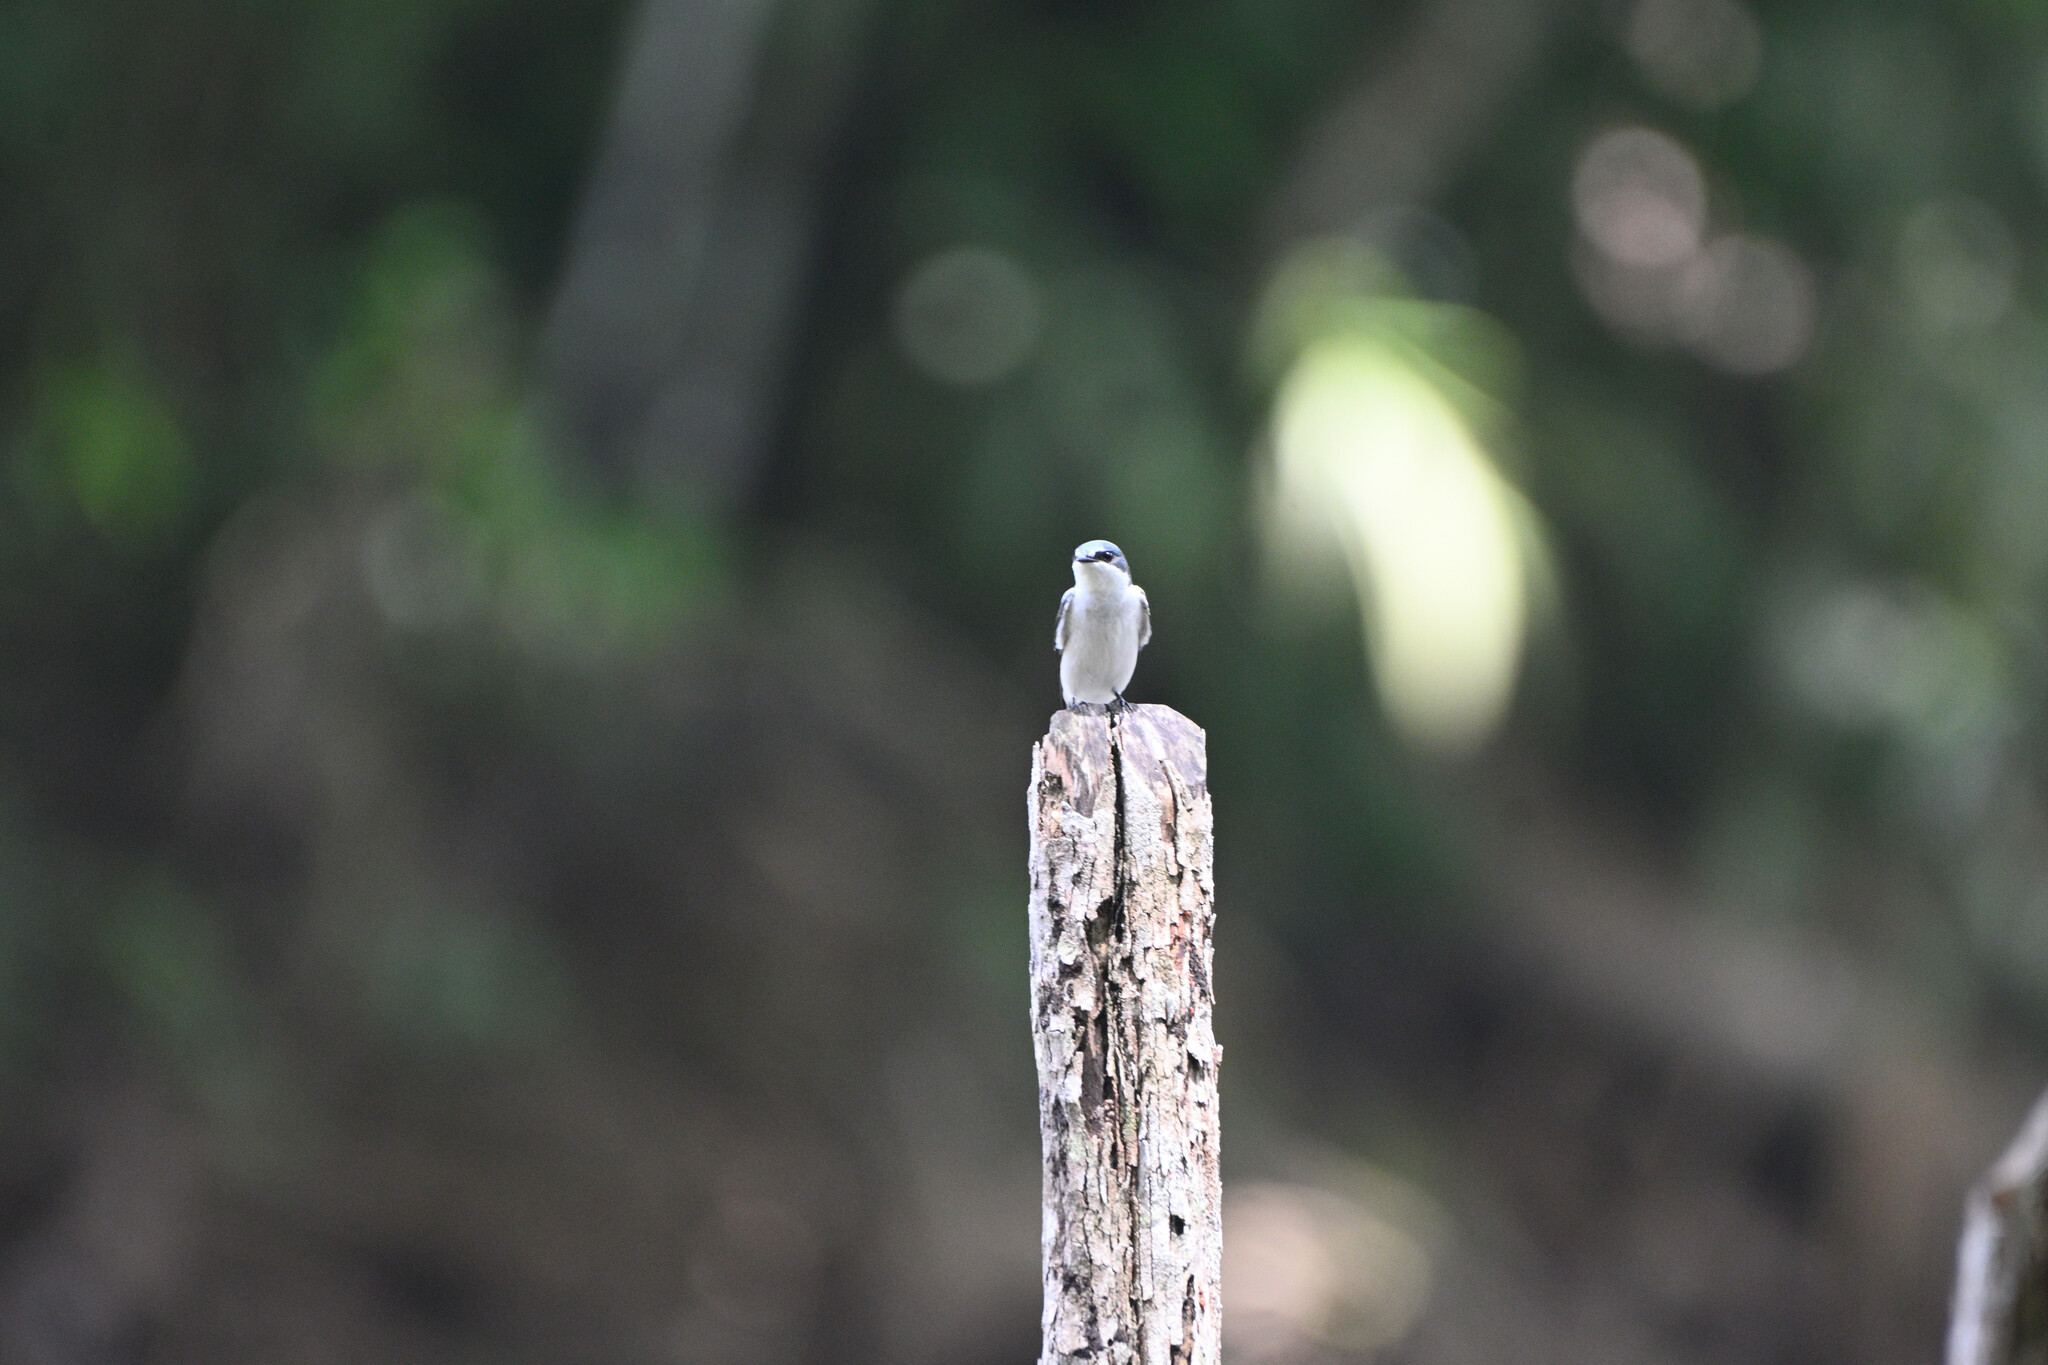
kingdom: Animalia
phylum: Chordata
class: Aves
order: Passeriformes
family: Hirundinidae
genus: Tachycineta
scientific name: Tachycineta albilinea
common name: Mangrove swallow
